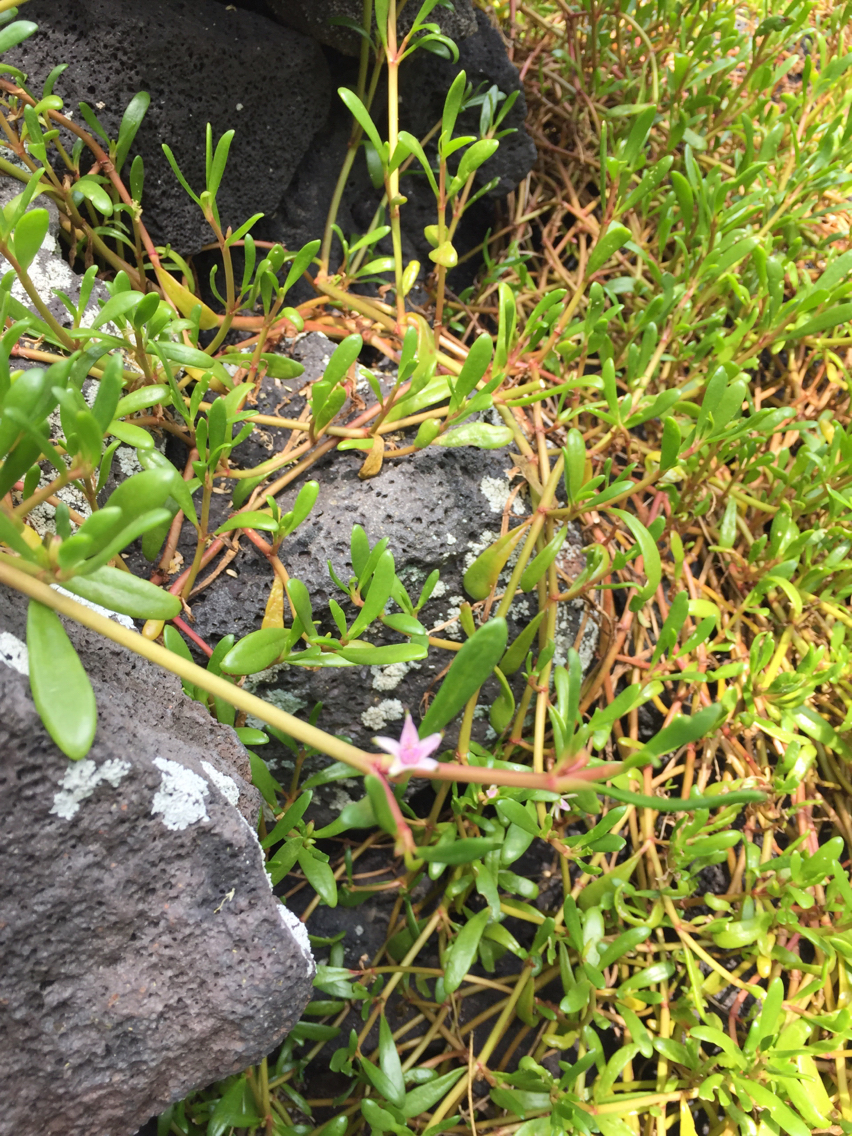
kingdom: Plantae
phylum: Tracheophyta
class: Magnoliopsida
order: Caryophyllales
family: Aizoaceae
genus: Sesuvium
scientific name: Sesuvium portulacastrum
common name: Sea-purslane
